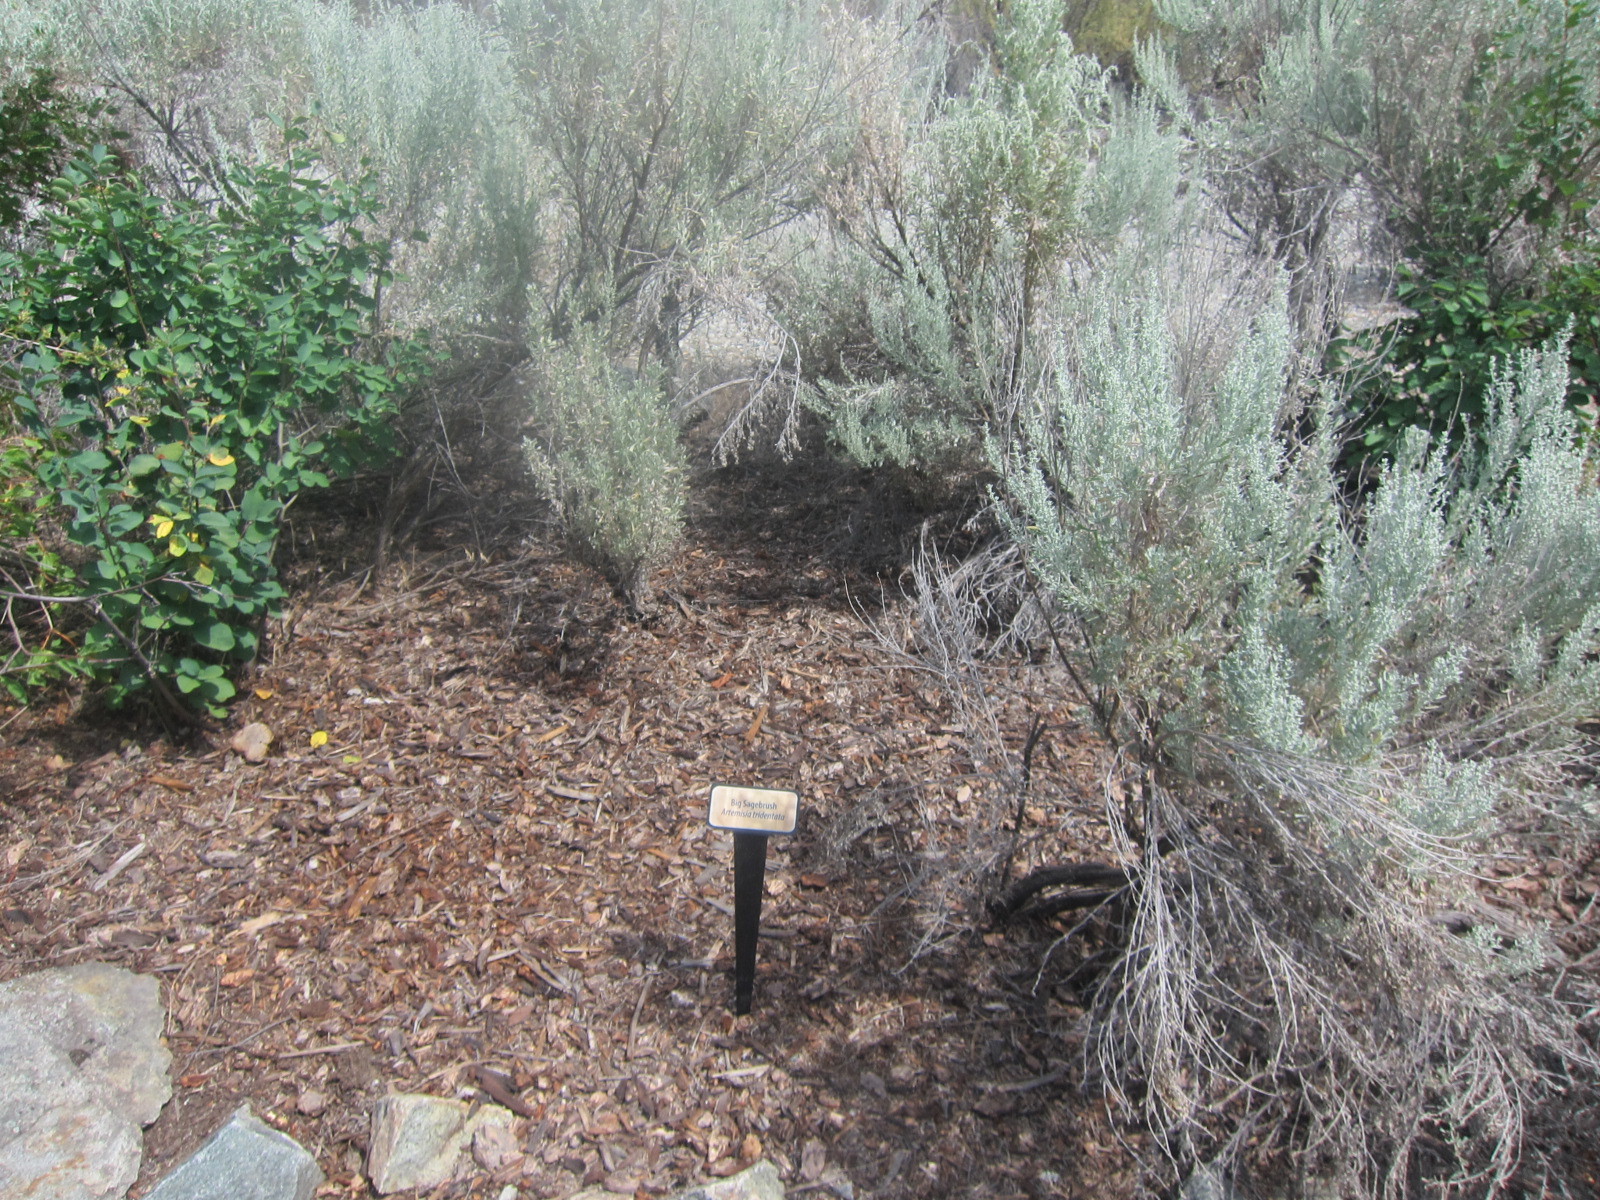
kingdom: Plantae
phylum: Tracheophyta
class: Magnoliopsida
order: Asterales
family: Asteraceae
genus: Artemisia
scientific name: Artemisia tridentata
